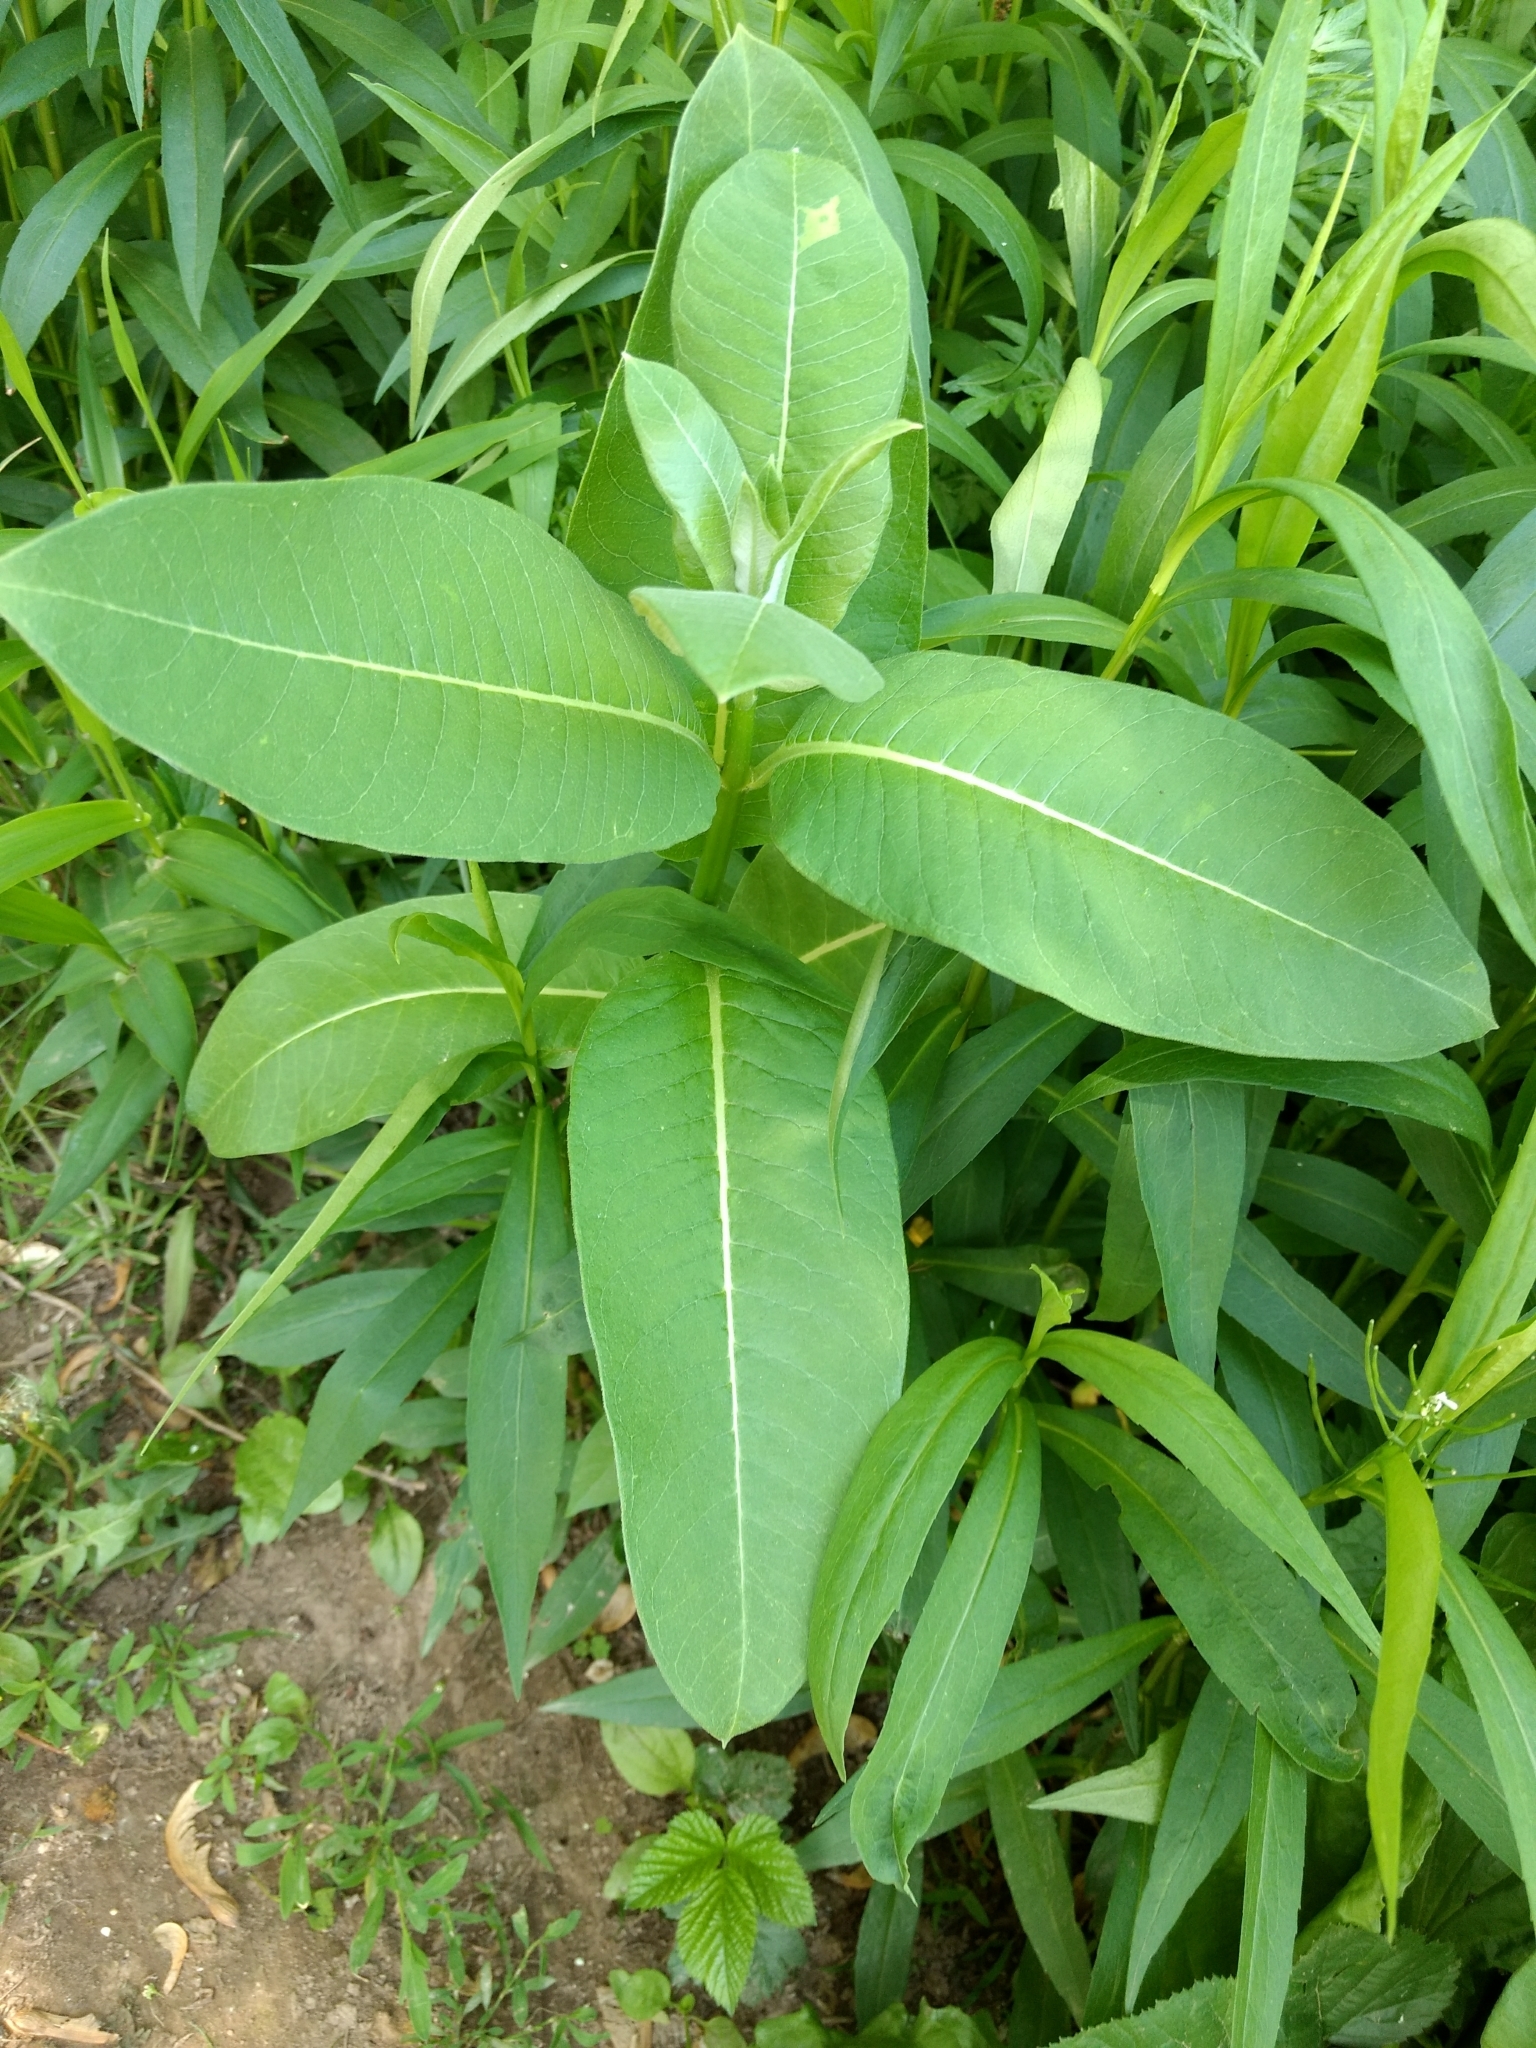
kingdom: Plantae
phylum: Tracheophyta
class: Magnoliopsida
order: Gentianales
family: Apocynaceae
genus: Asclepias
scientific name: Asclepias syriaca
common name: Common milkweed
